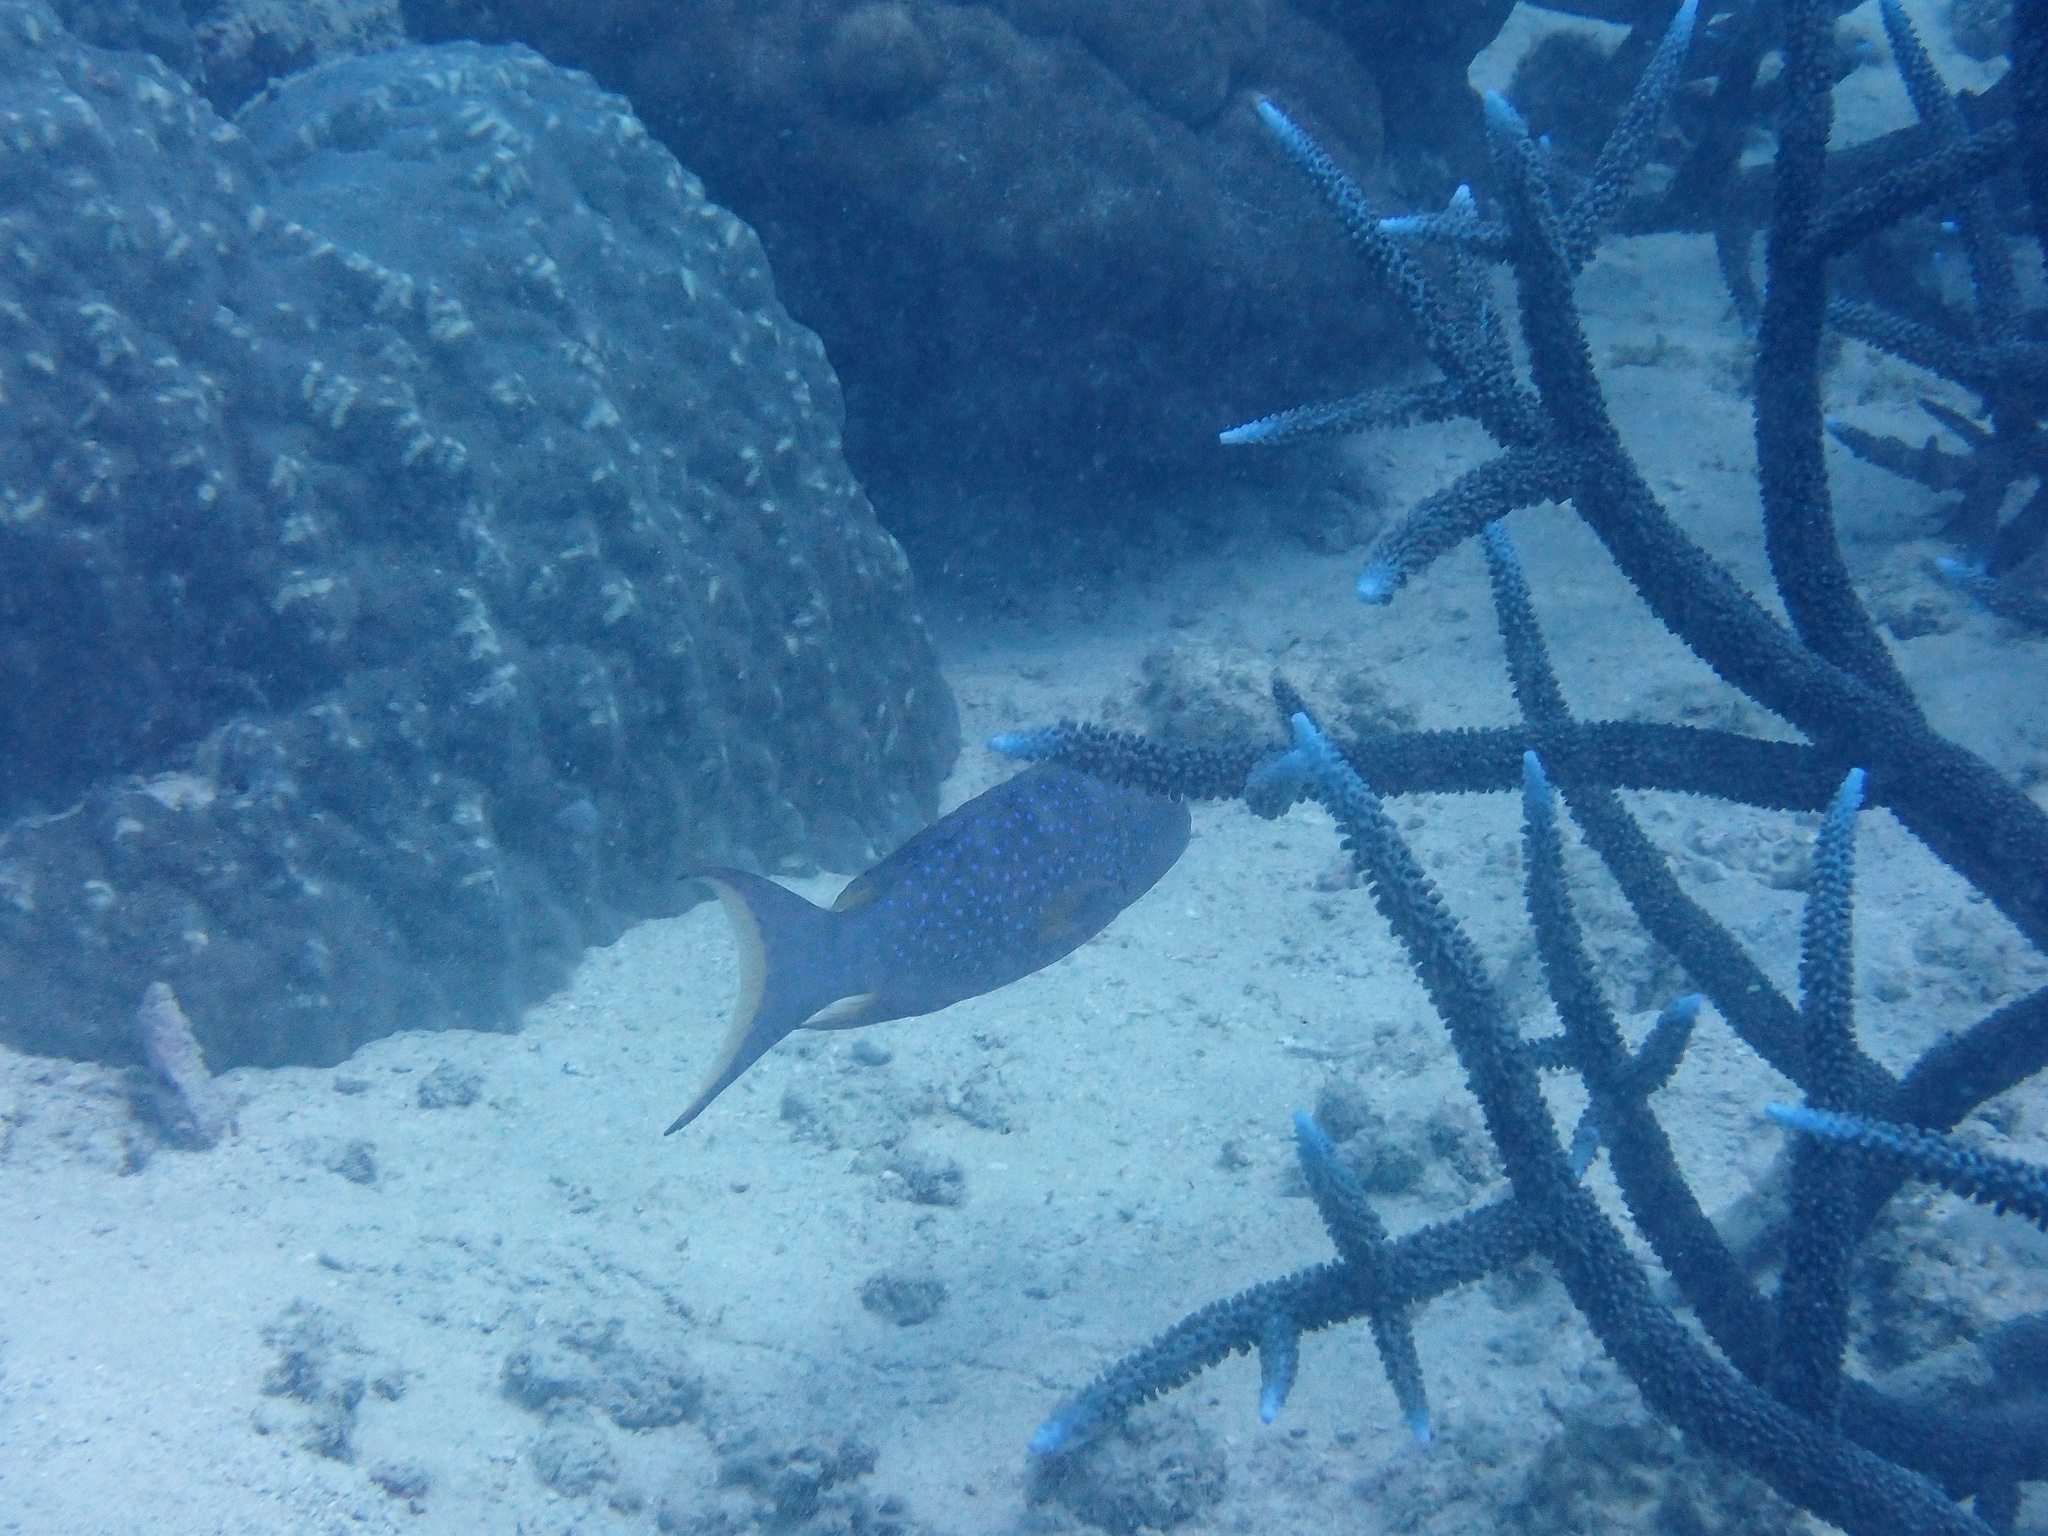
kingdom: Animalia
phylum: Chordata
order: Perciformes
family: Serranidae
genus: Variola
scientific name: Variola louti
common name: Yellow-edged lyretail
